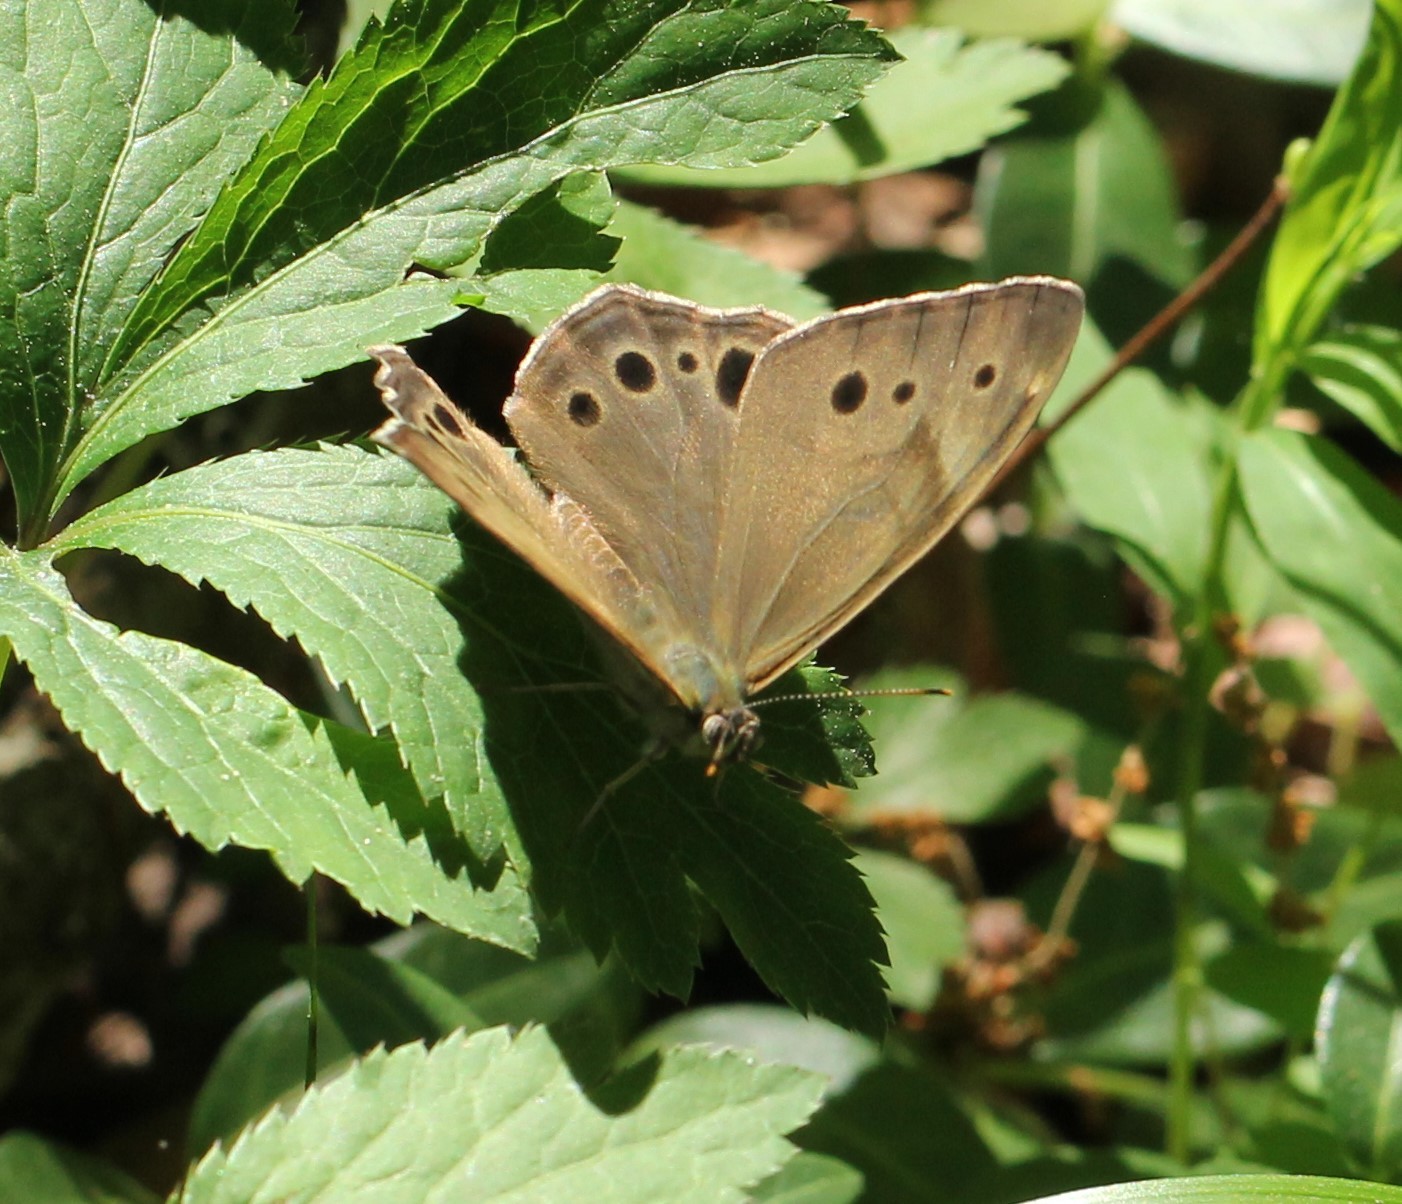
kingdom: Animalia
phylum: Arthropoda
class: Insecta
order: Lepidoptera
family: Nymphalidae
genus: Lethe
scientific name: Lethe anthedon
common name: Northern pearly-eye
